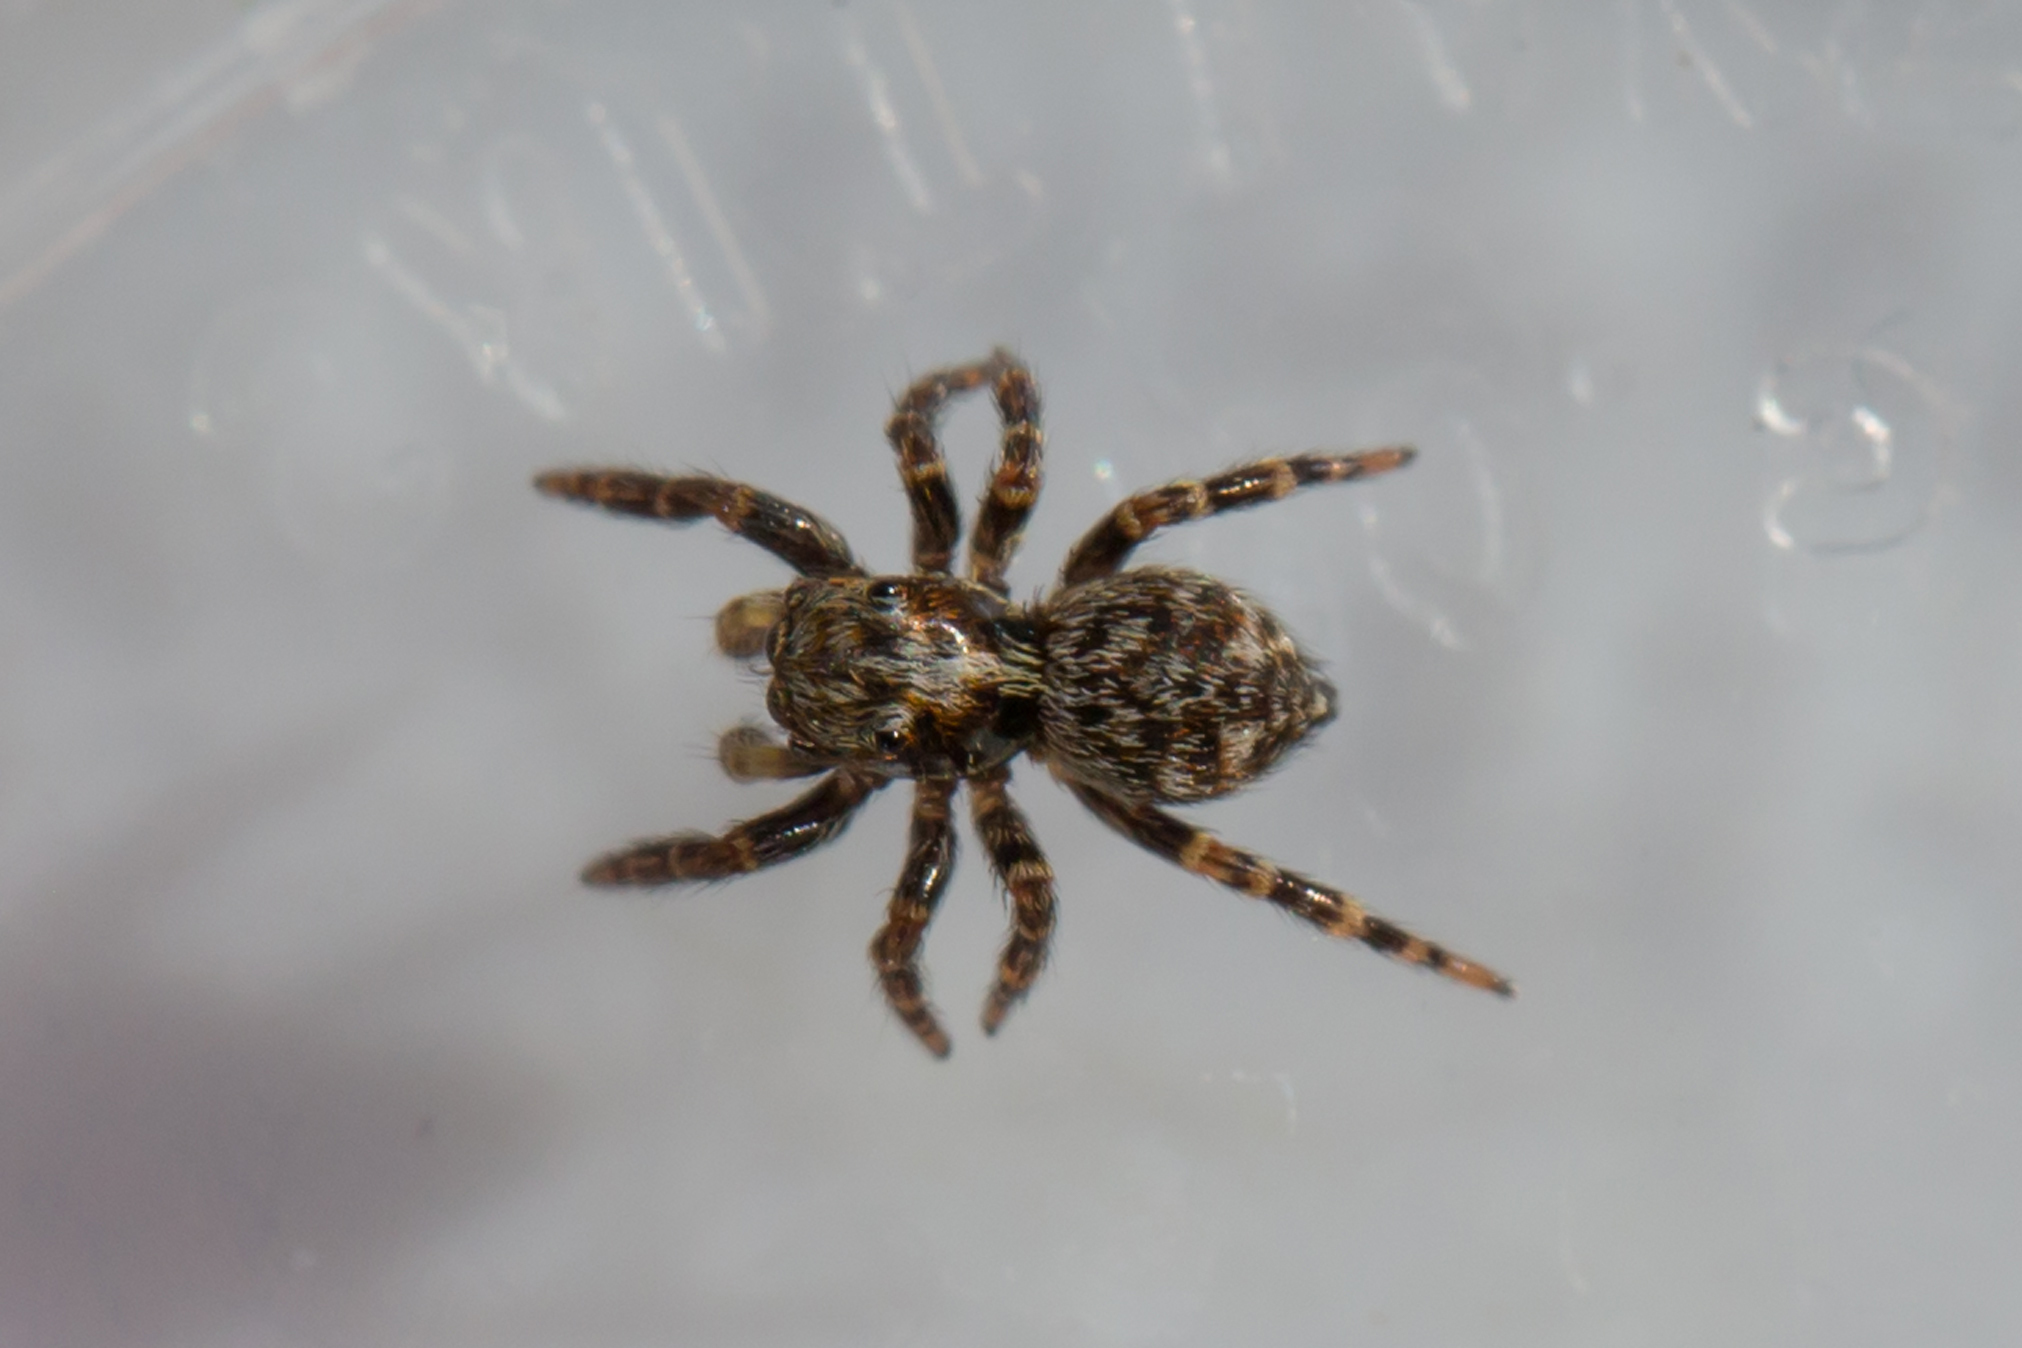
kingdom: Animalia
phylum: Arthropoda
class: Arachnida
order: Araneae
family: Salticidae
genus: Pseudeuophrys
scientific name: Pseudeuophrys erratica
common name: Jumping spider
